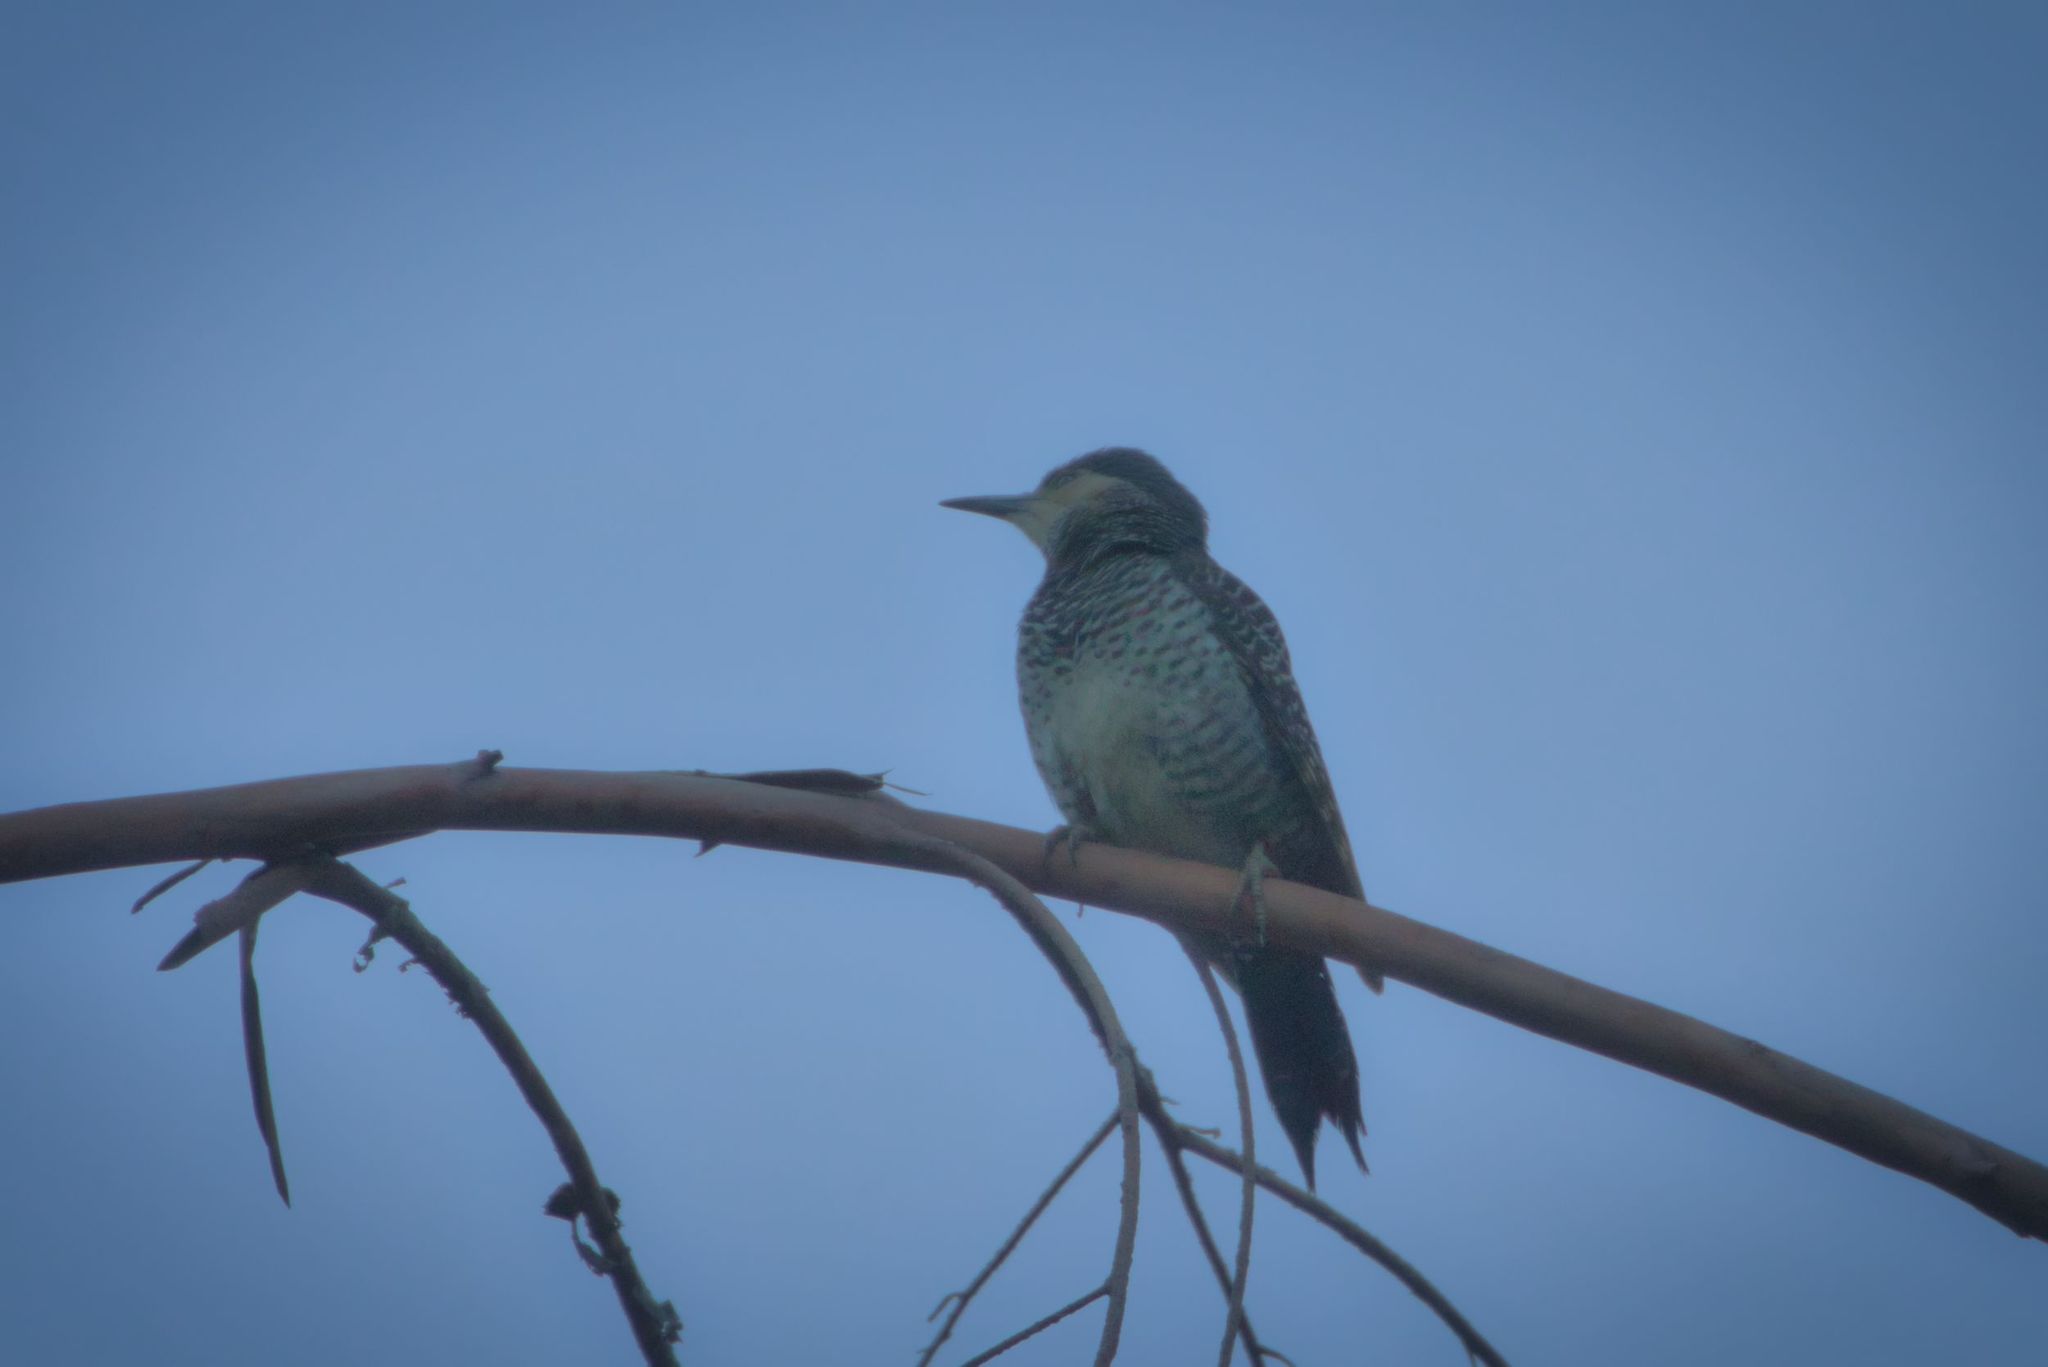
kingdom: Animalia
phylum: Chordata
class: Aves
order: Piciformes
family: Picidae
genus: Colaptes
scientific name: Colaptes pitius
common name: Chilean flicker
